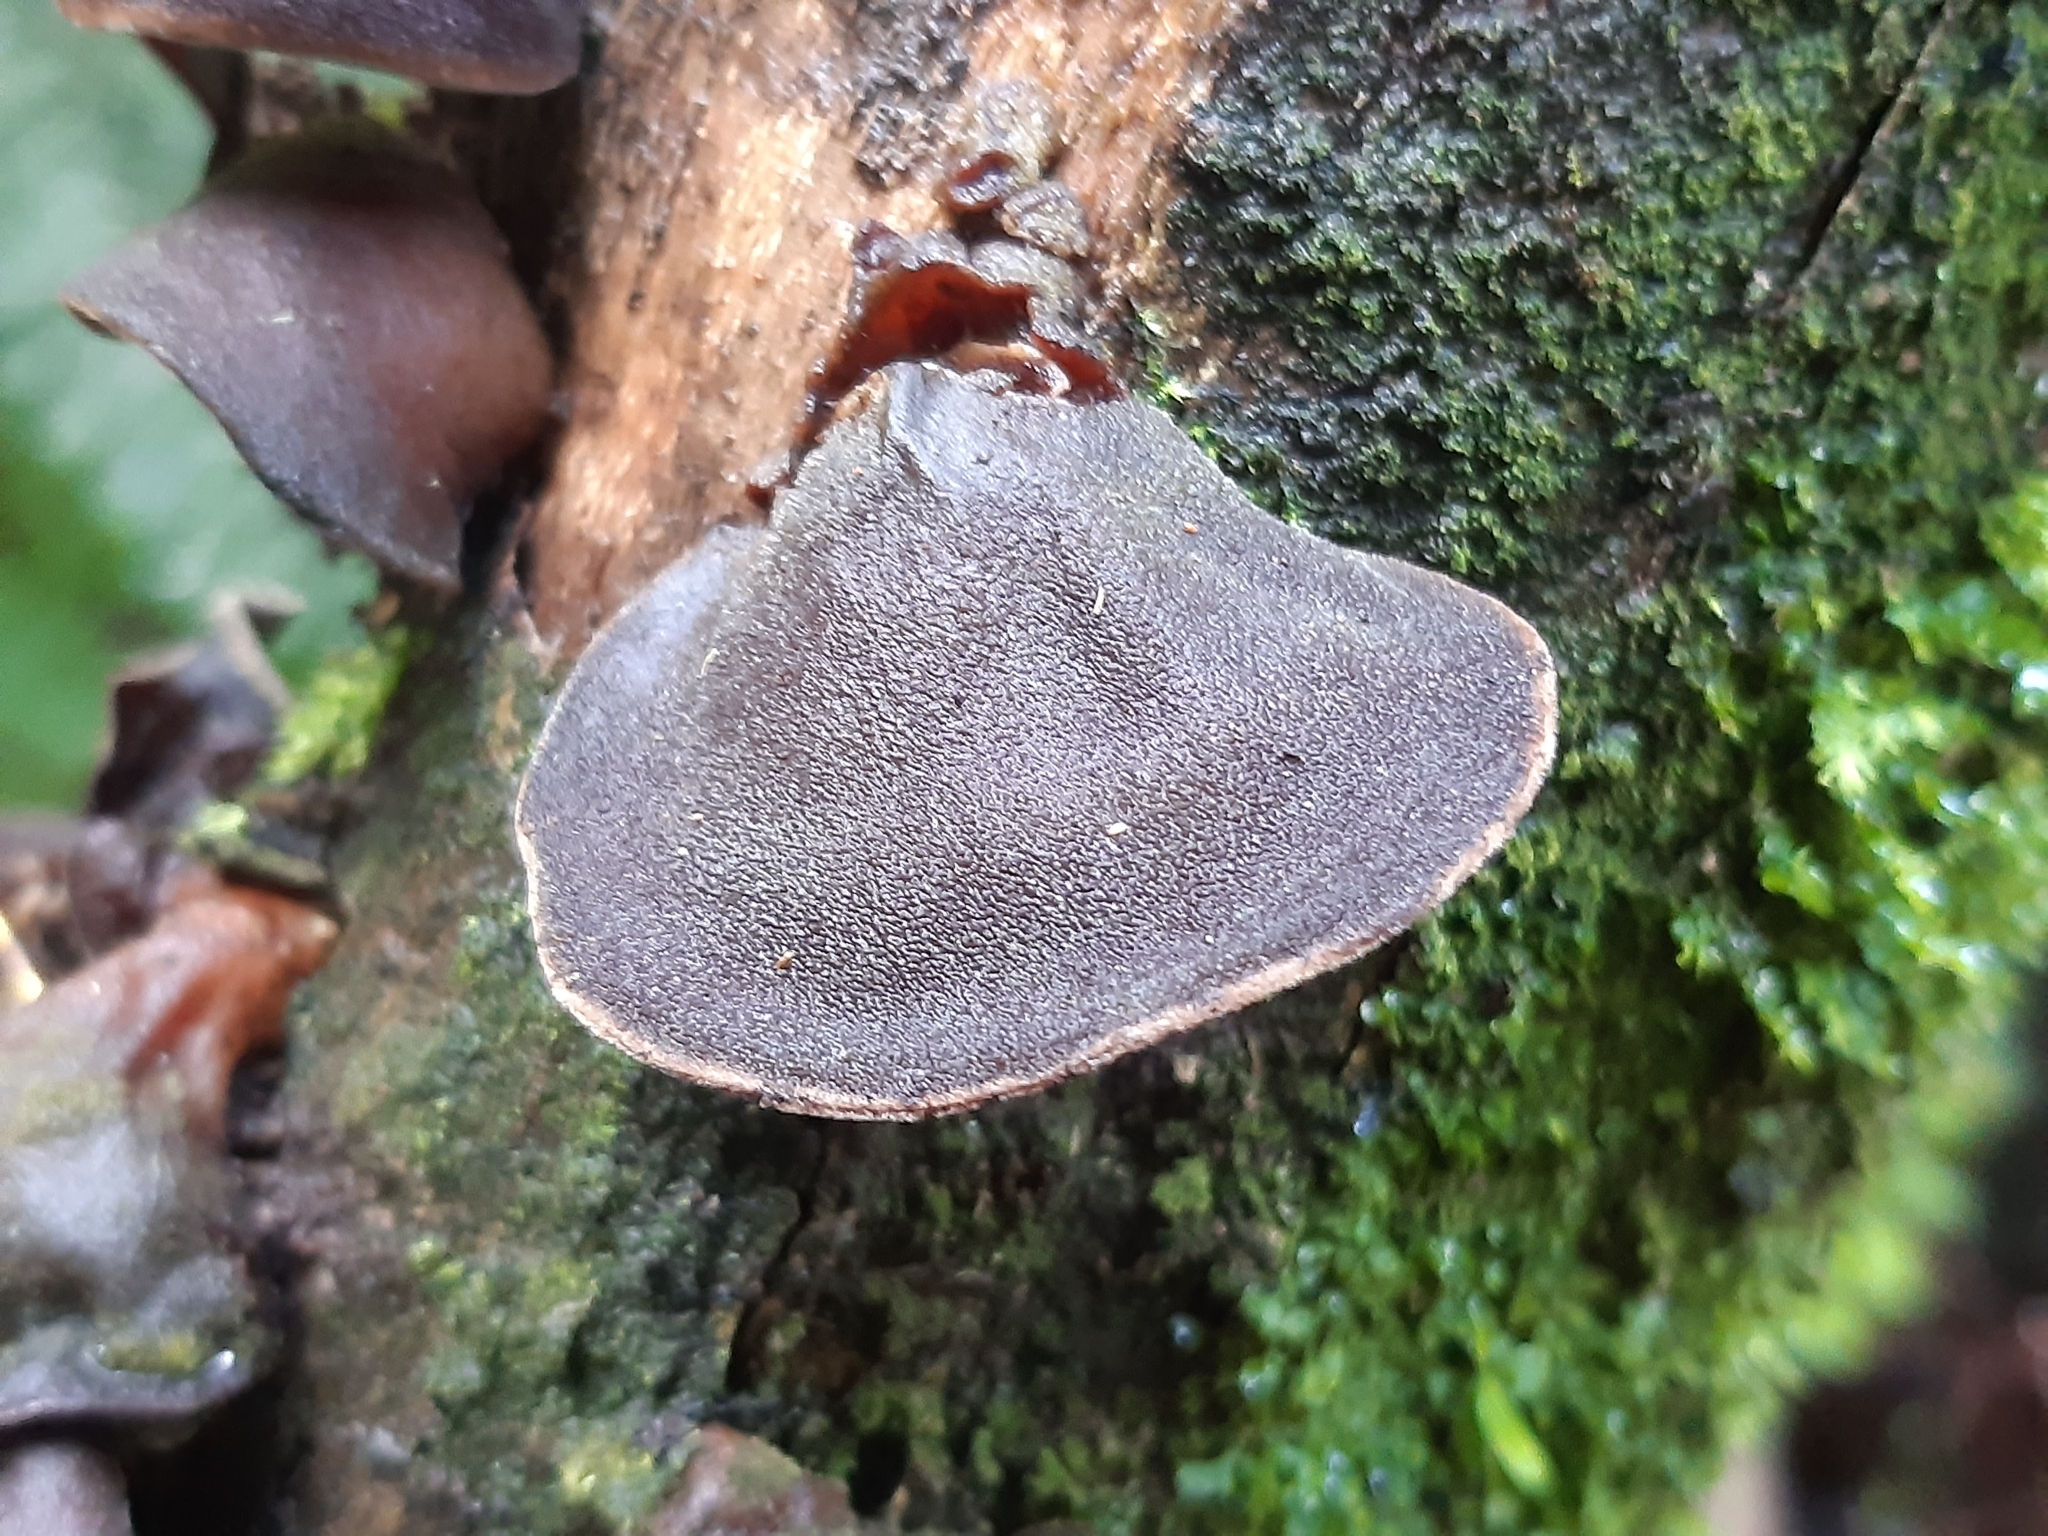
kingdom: Fungi
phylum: Basidiomycota
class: Agaricomycetes
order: Auriculariales
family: Auriculariaceae
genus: Auricularia
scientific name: Auricularia cornea
